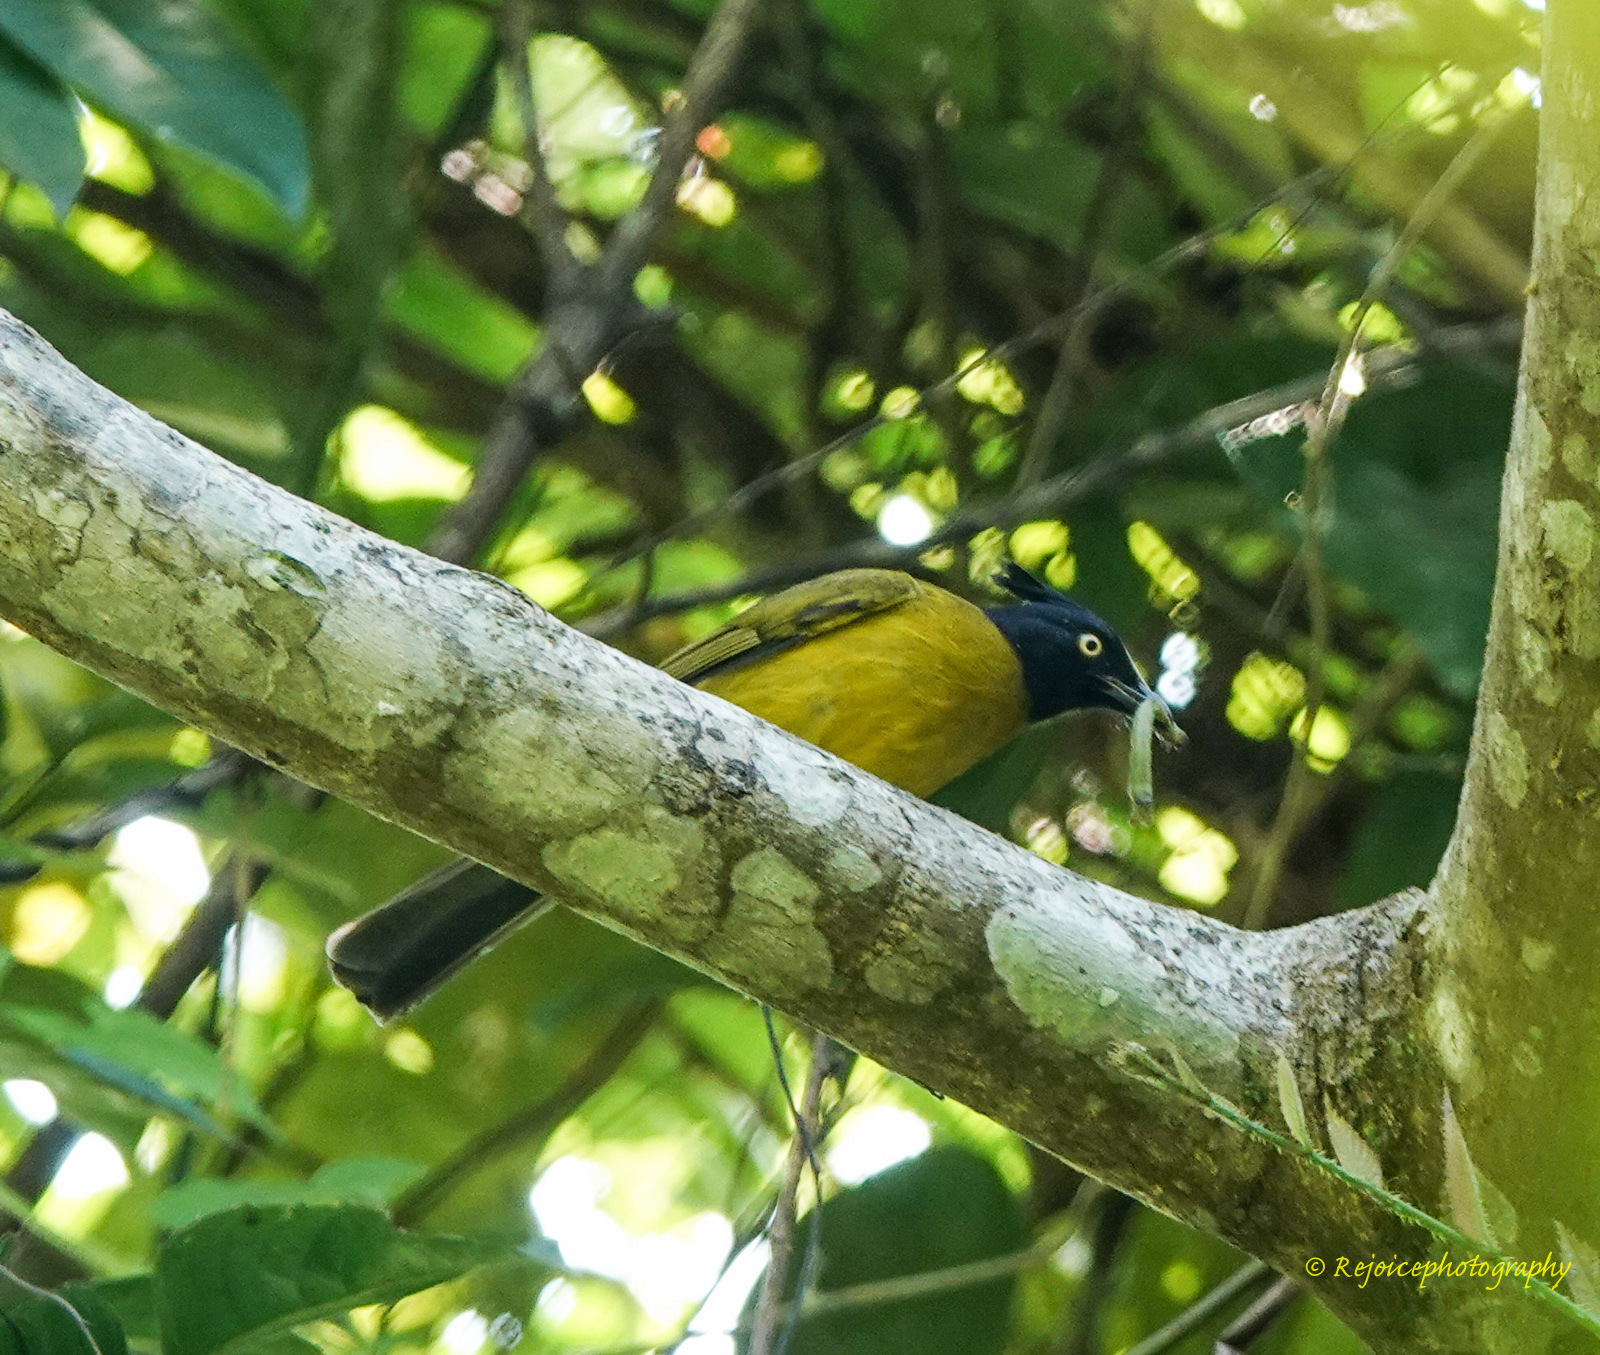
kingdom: Animalia
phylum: Chordata
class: Aves
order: Passeriformes
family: Pycnonotidae
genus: Pycnonotus
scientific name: Pycnonotus flaviventris
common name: Black-crested bulbul
